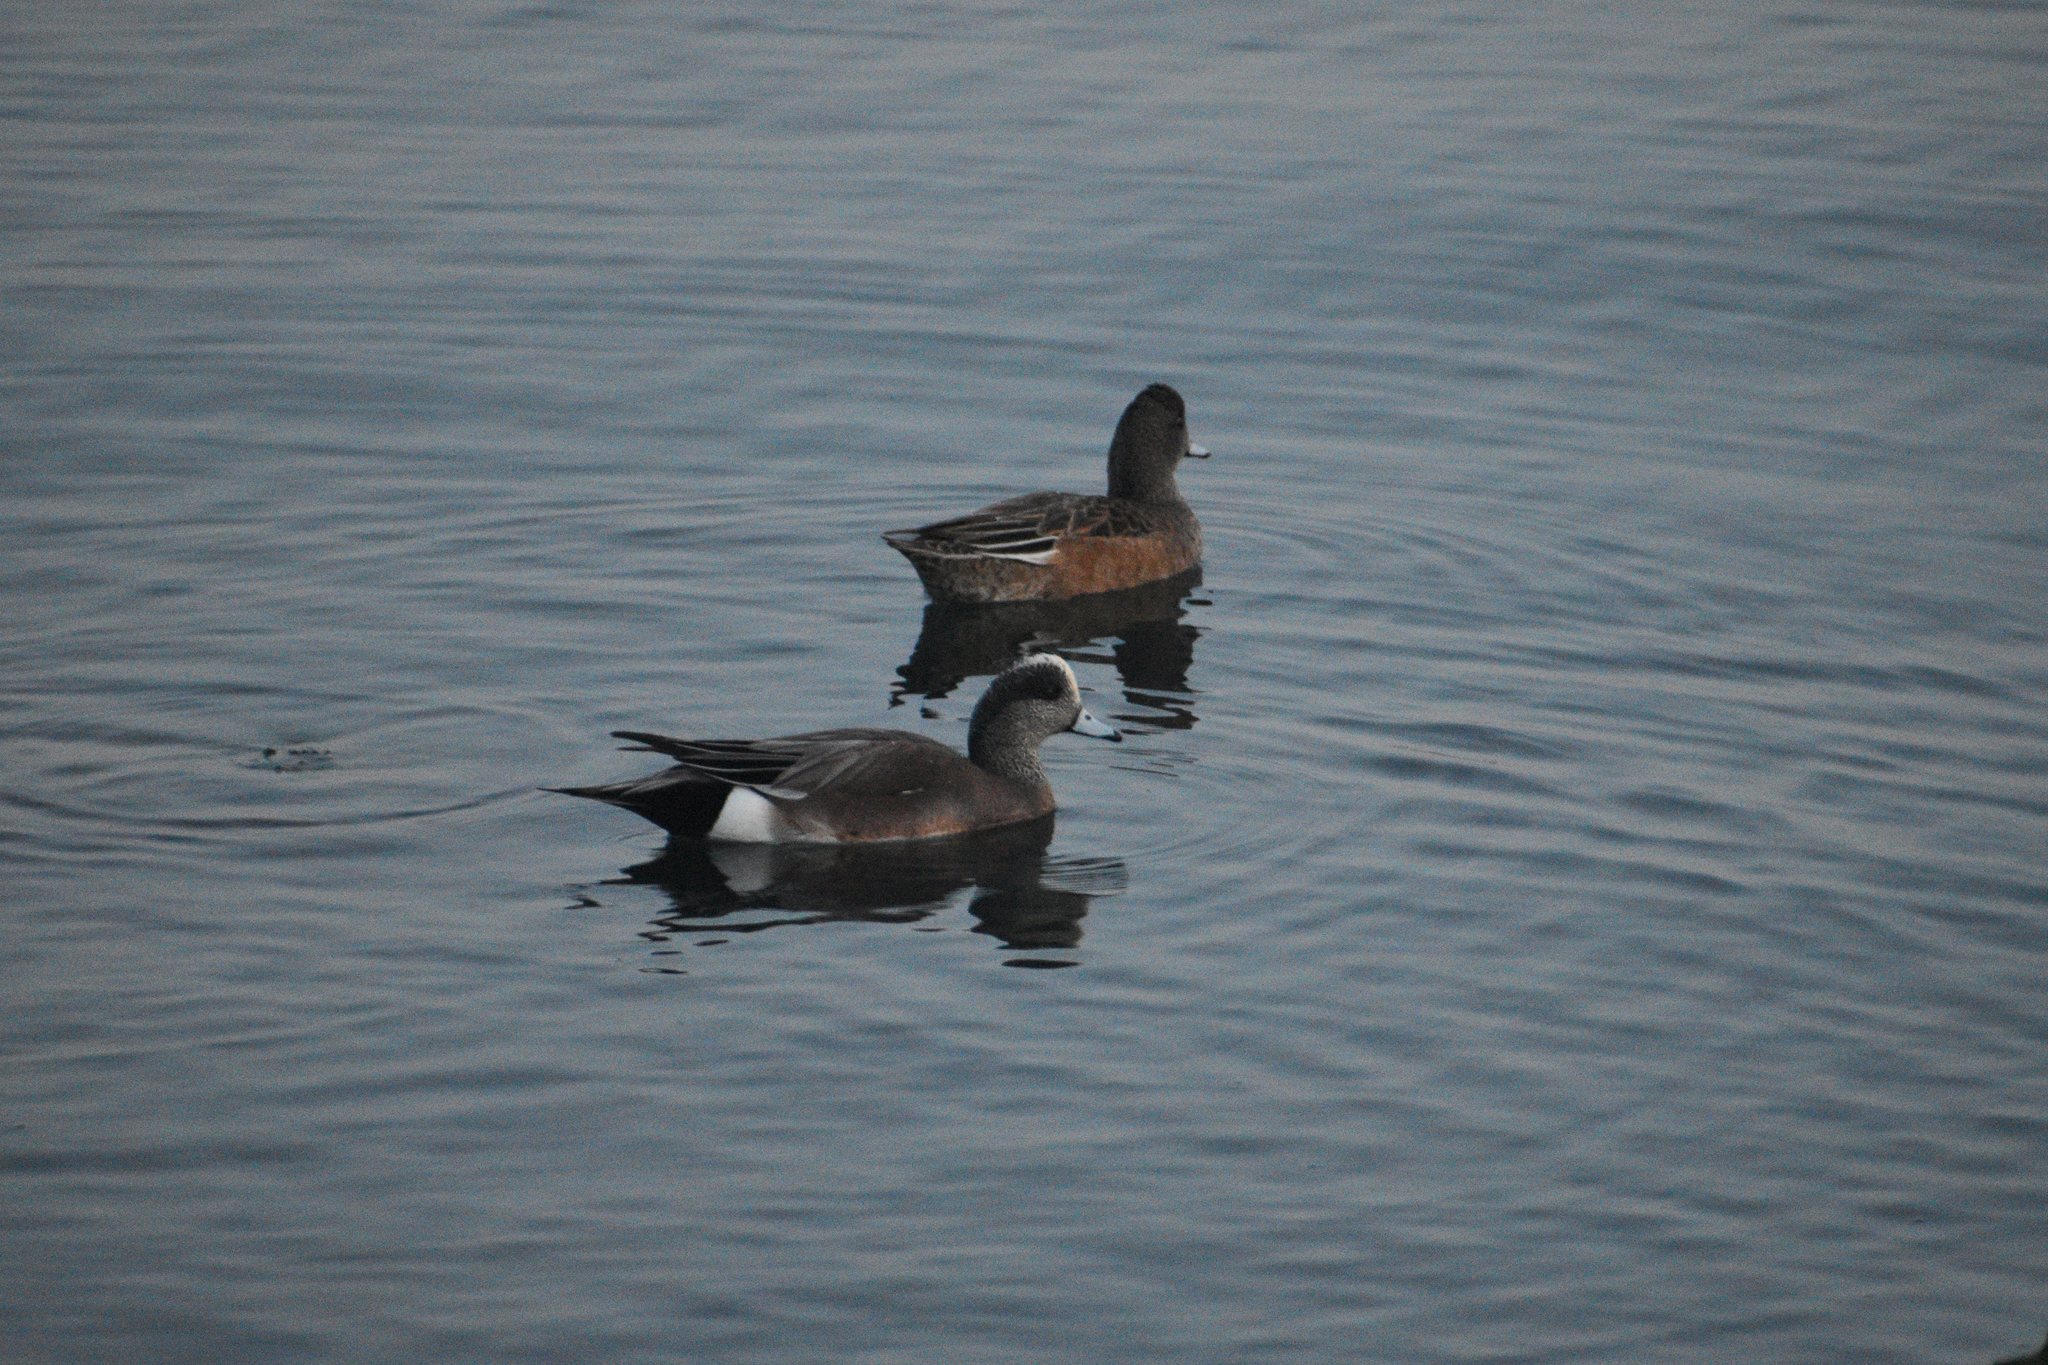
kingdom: Animalia
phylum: Chordata
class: Aves
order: Anseriformes
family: Anatidae
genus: Mareca
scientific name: Mareca americana
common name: American wigeon
